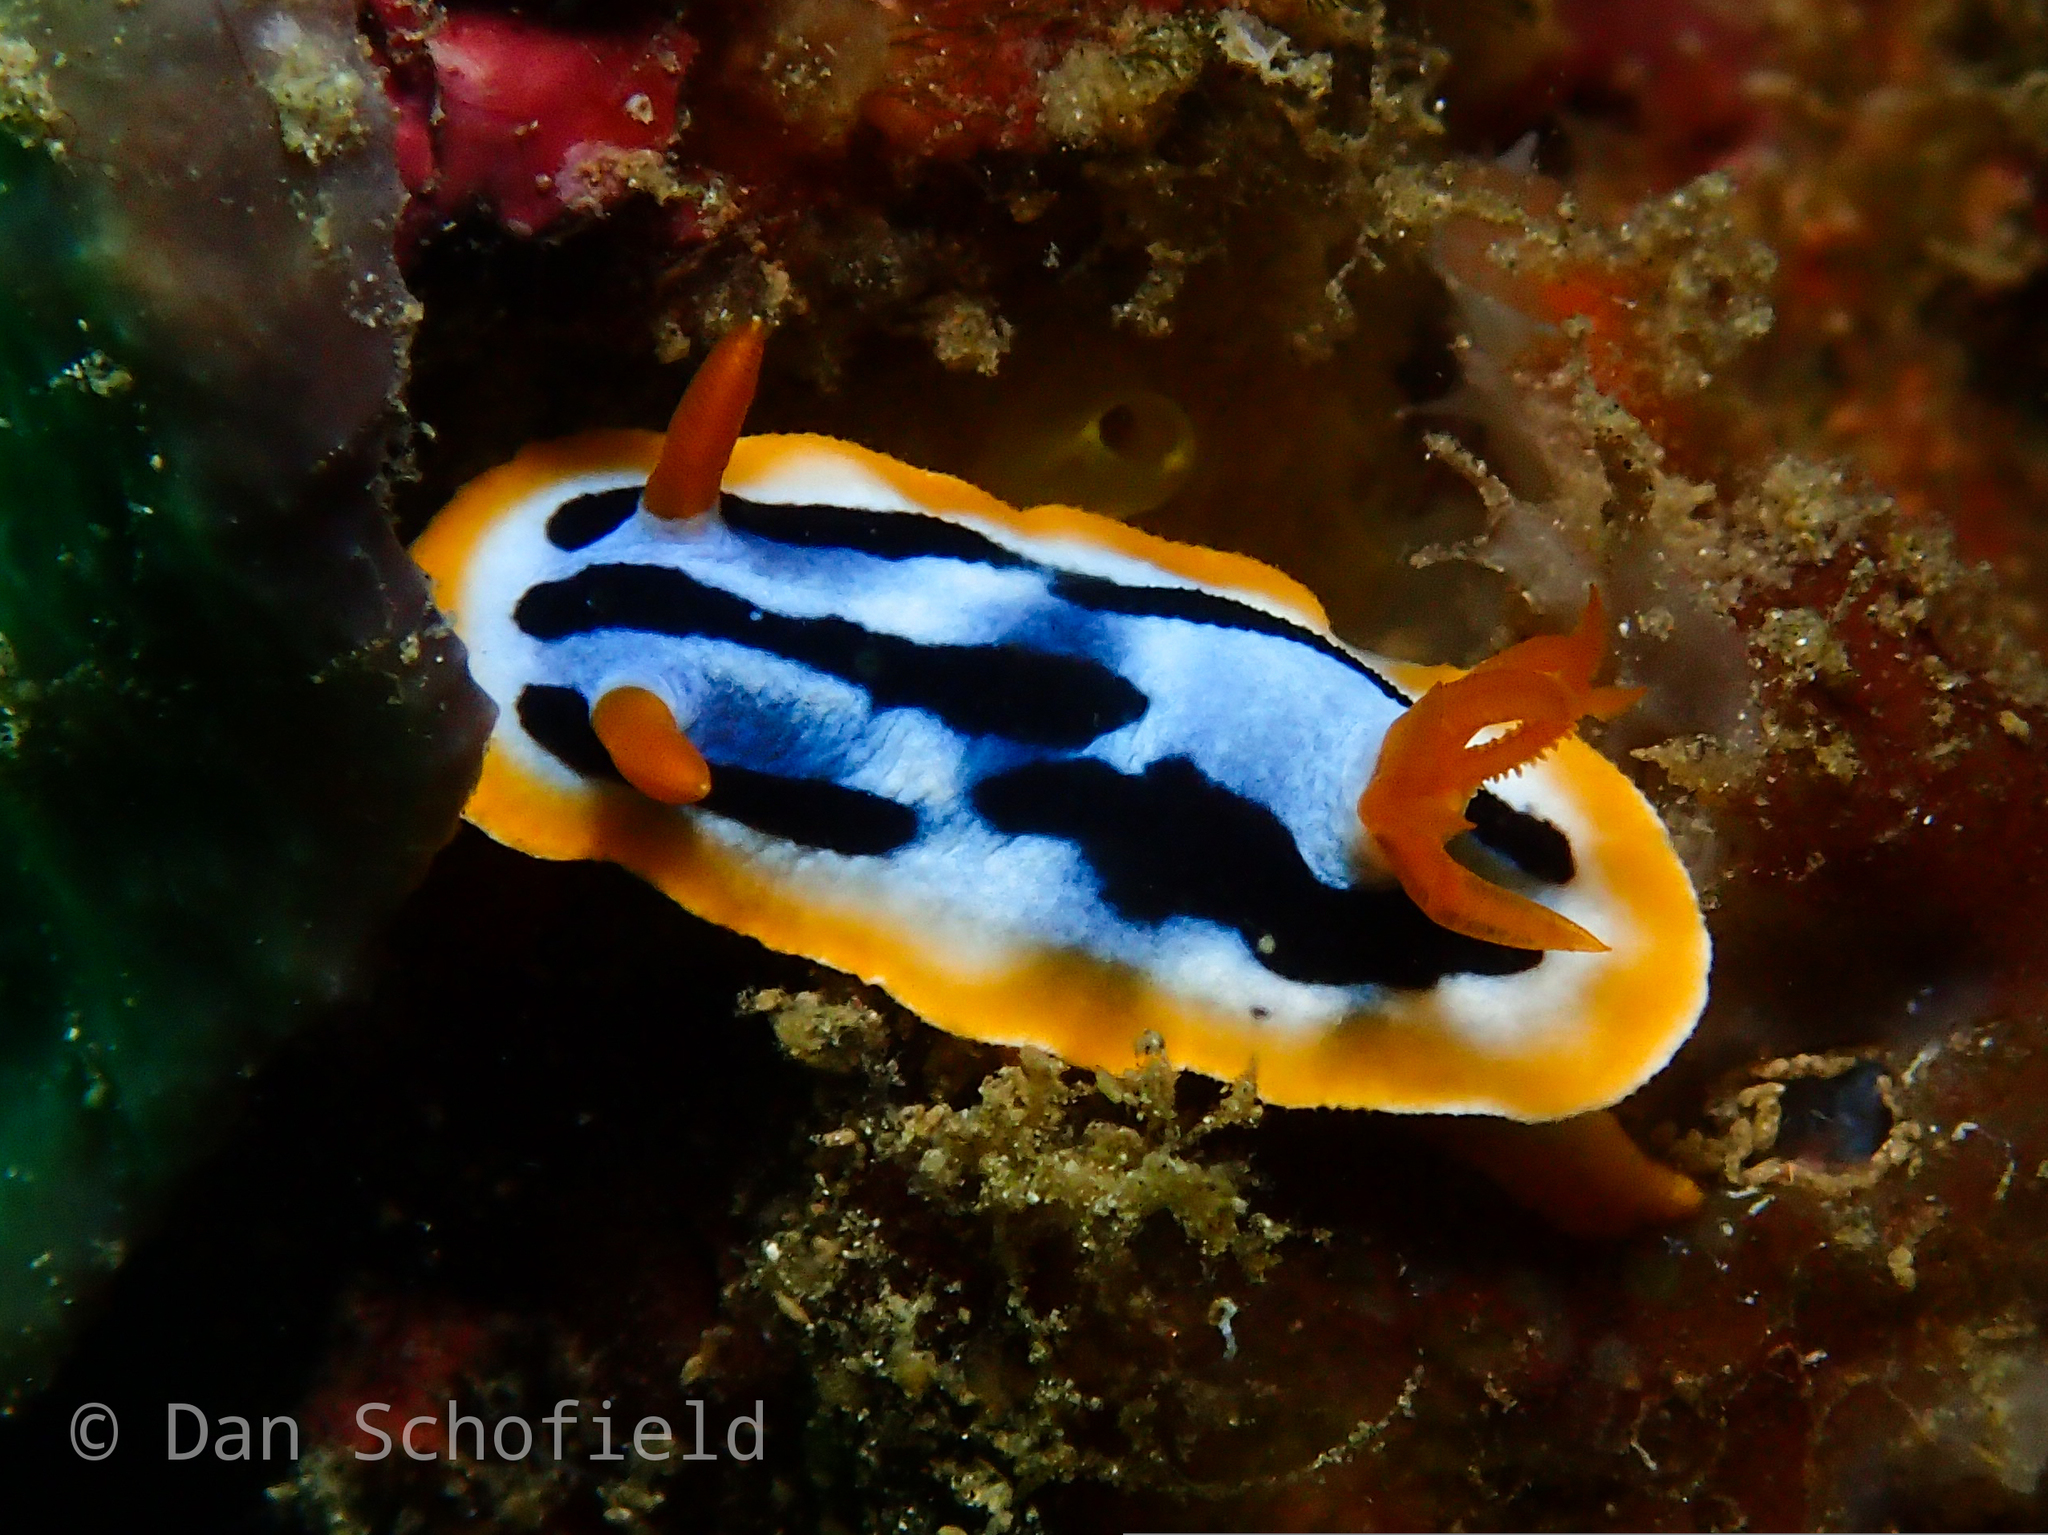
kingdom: Animalia
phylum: Mollusca
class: Gastropoda
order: Nudibranchia
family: Chromodorididae
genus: Chromodoris
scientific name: Chromodoris strigata
